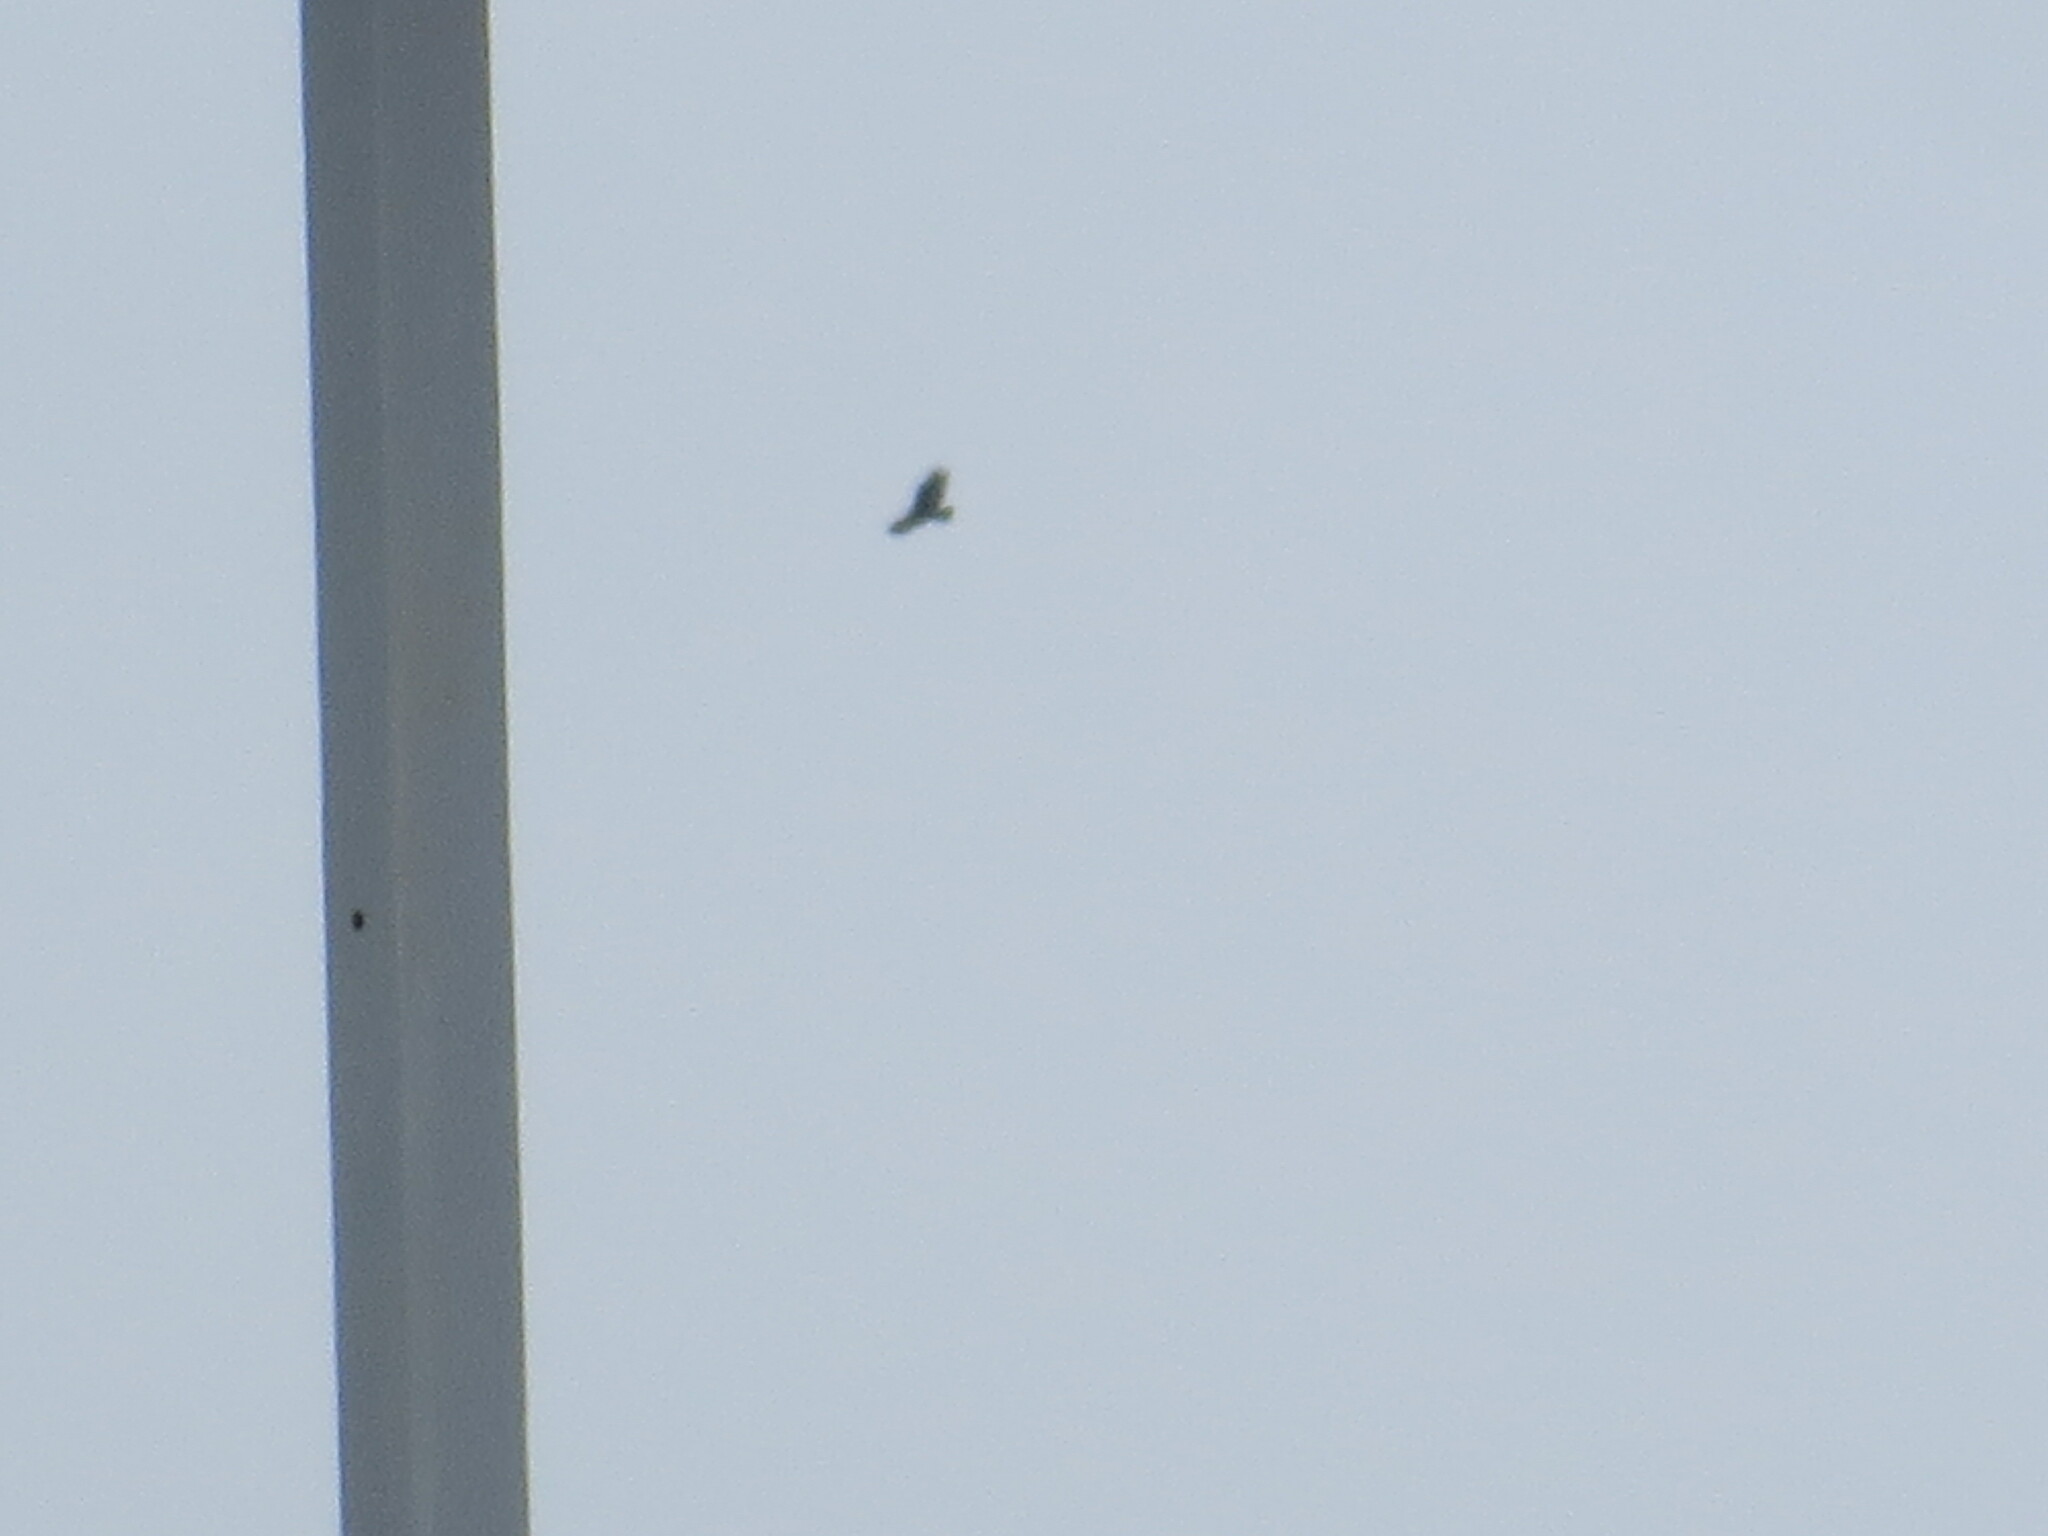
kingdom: Animalia
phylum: Chordata
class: Aves
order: Accipitriformes
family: Cathartidae
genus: Cathartes
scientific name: Cathartes aura
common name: Turkey vulture
